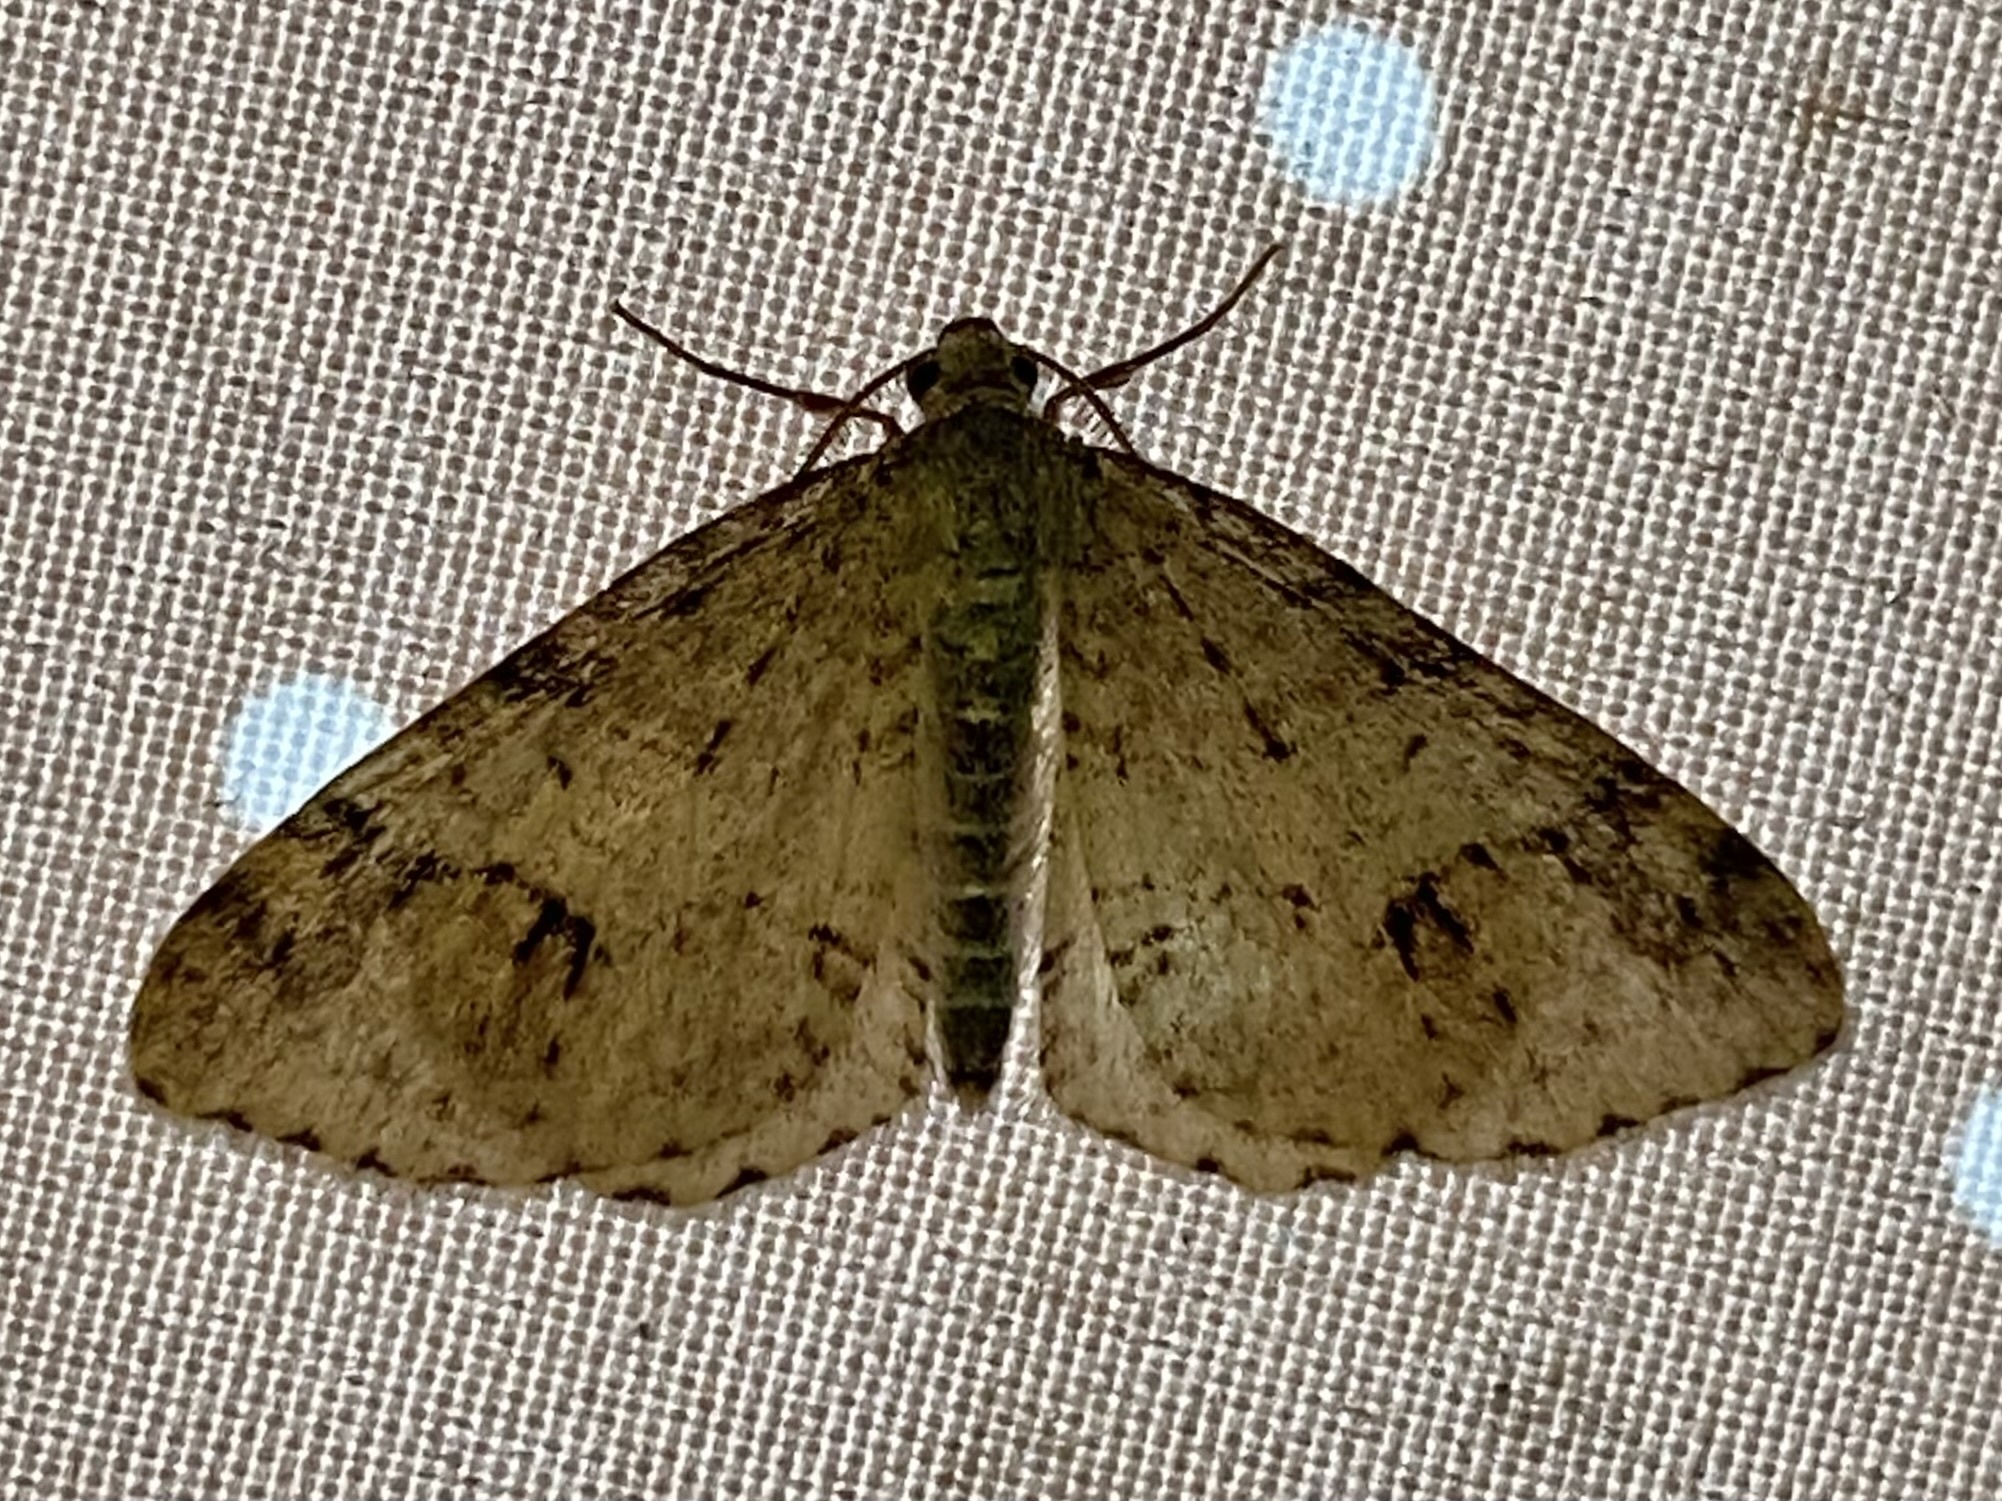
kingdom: Animalia
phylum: Arthropoda
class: Insecta
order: Lepidoptera
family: Geometridae
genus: Venusia
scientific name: Venusia cambrica
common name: Welsh wave
